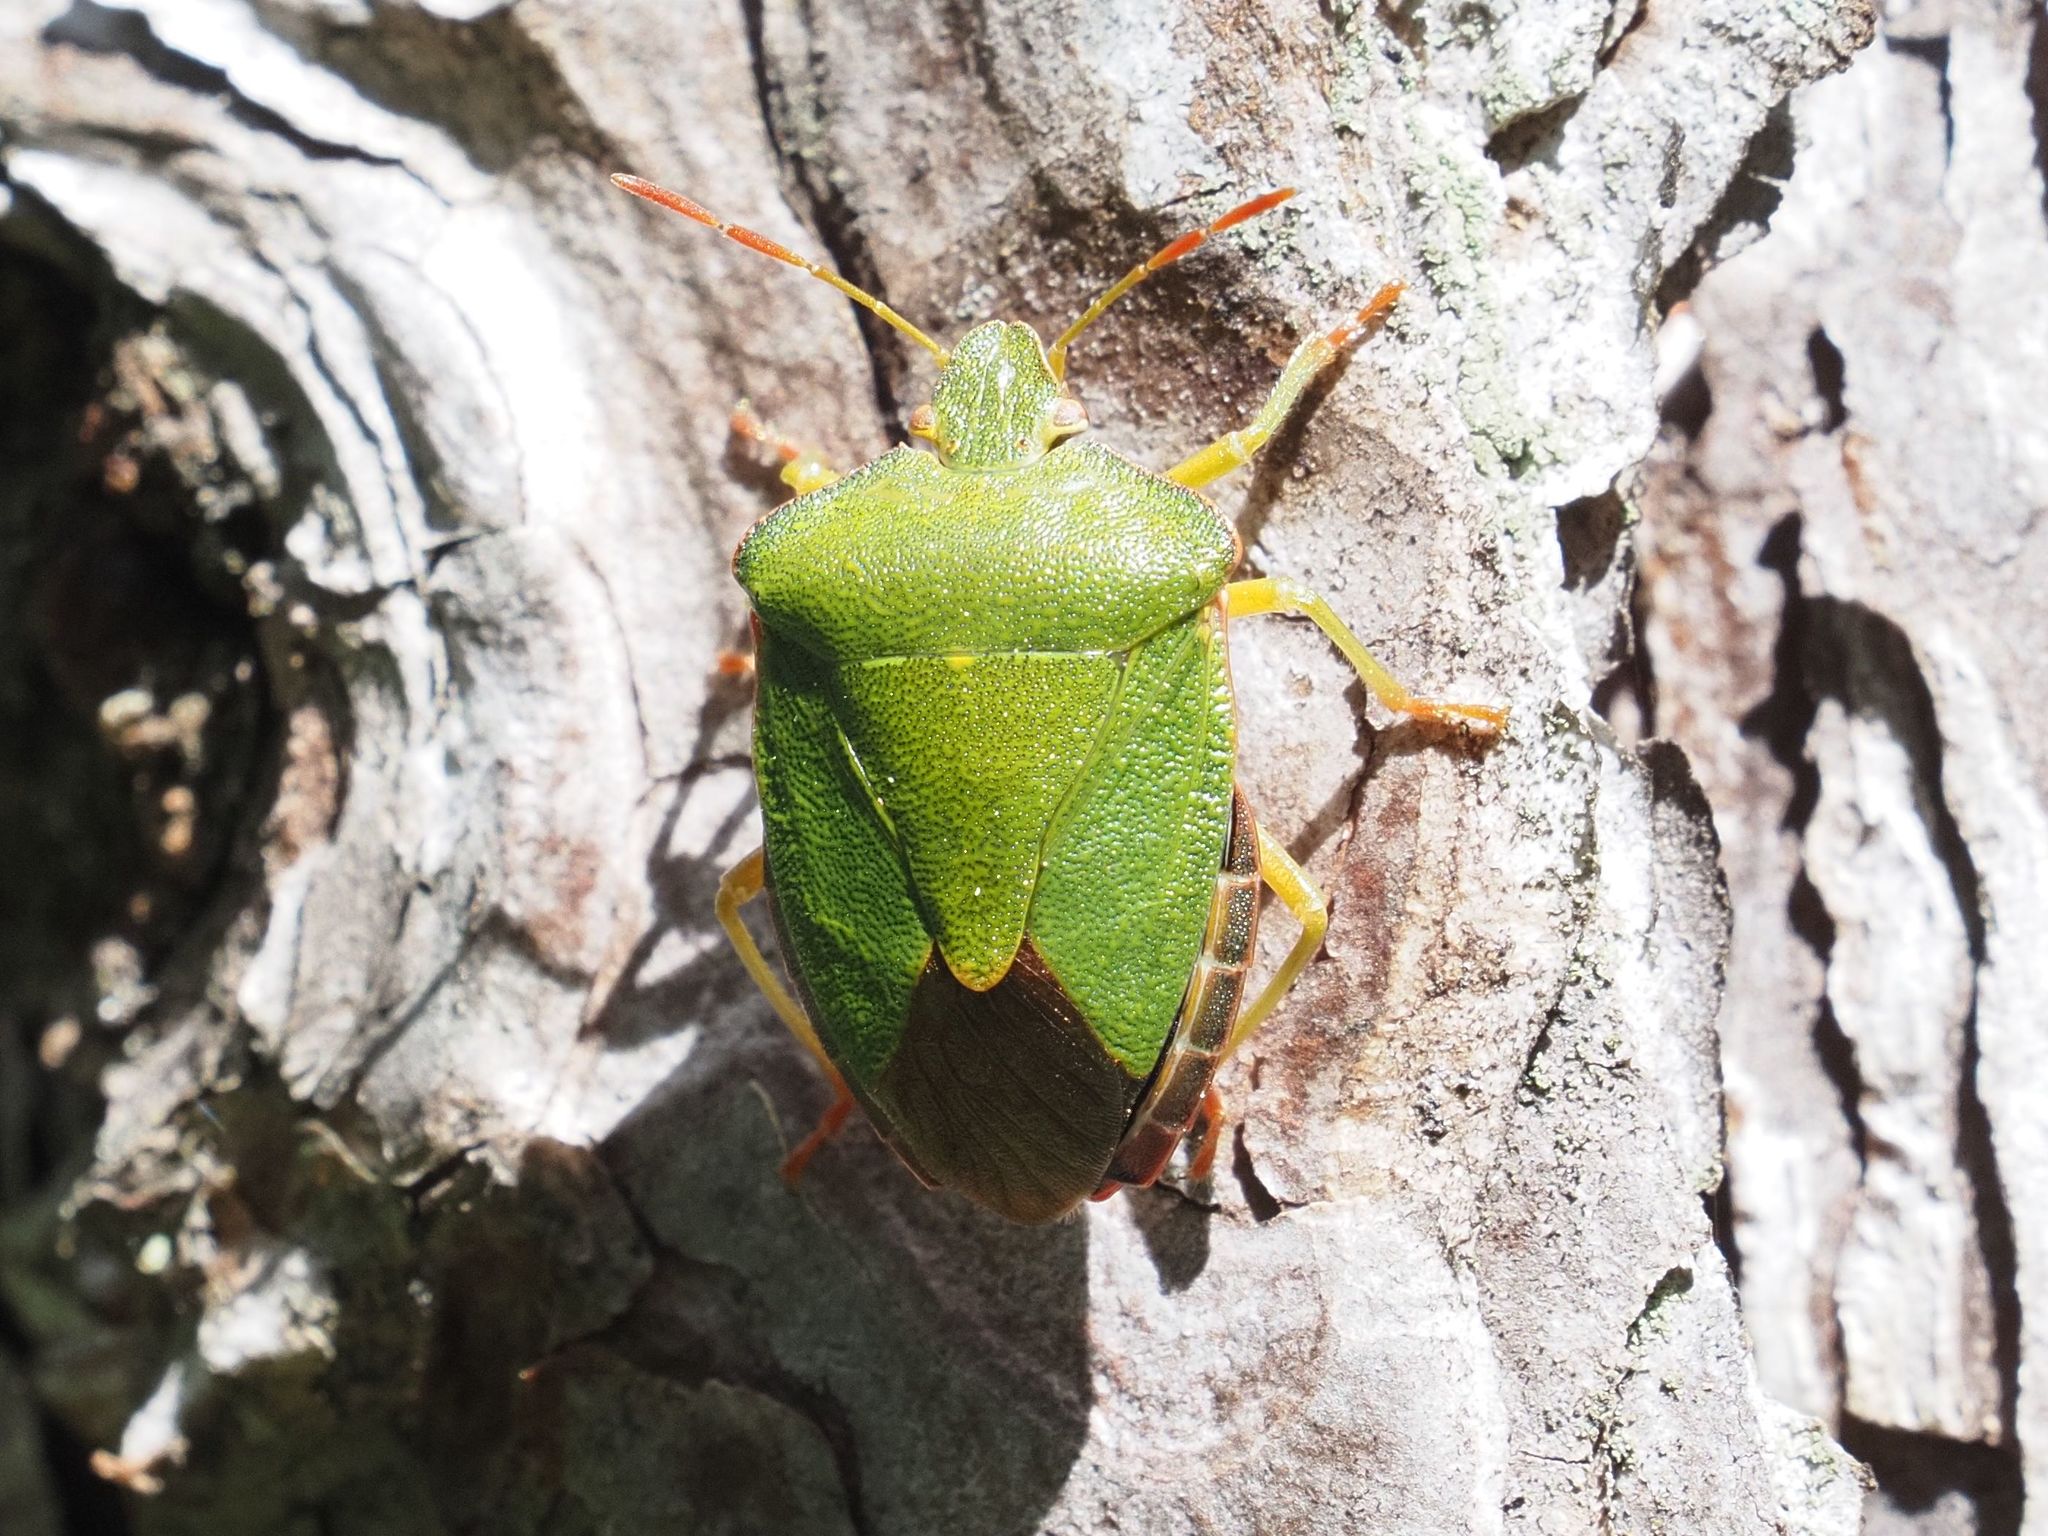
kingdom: Animalia
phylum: Arthropoda
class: Insecta
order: Hemiptera
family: Pentatomidae
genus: Palomena
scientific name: Palomena prasina
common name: Green shieldbug
